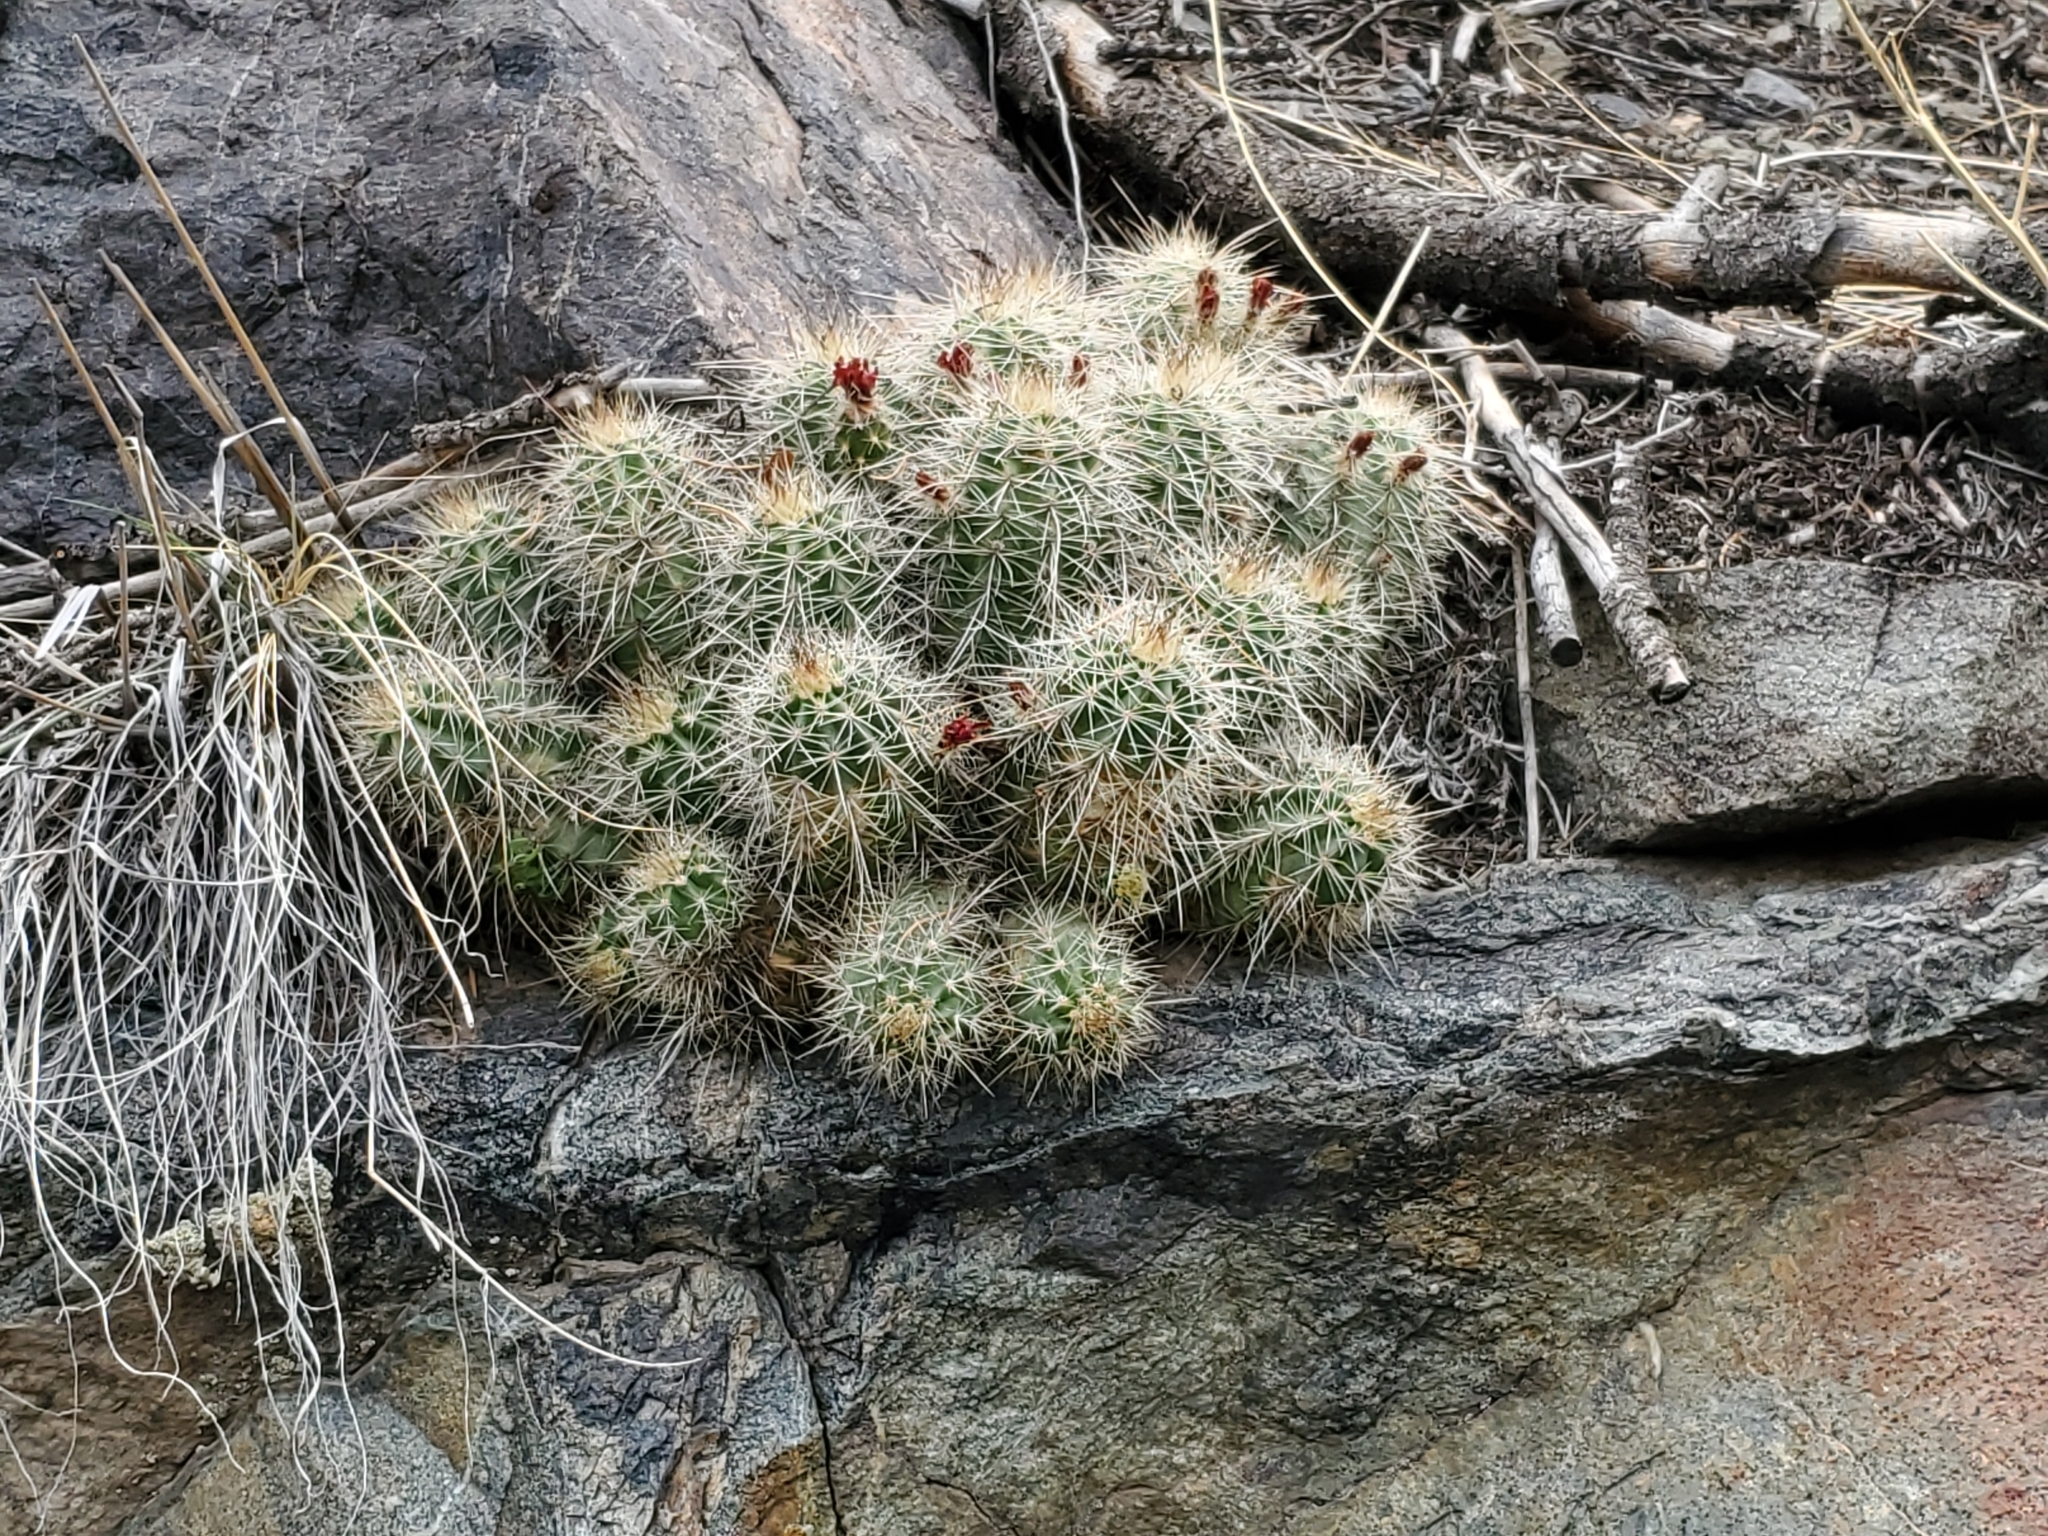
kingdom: Plantae
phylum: Tracheophyta
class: Magnoliopsida
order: Caryophyllales
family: Cactaceae
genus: Echinocereus
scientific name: Echinocereus coccineus
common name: Scarlet hedgehog cactus
